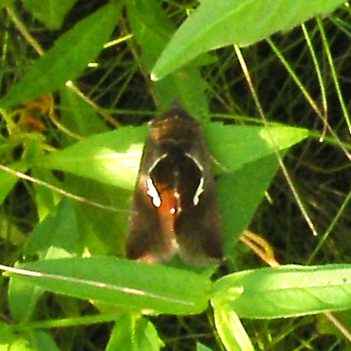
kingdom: Animalia
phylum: Arthropoda
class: Insecta
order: Lepidoptera
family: Noctuidae
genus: Anagrapha
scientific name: Anagrapha falcifera
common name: Celery looper
